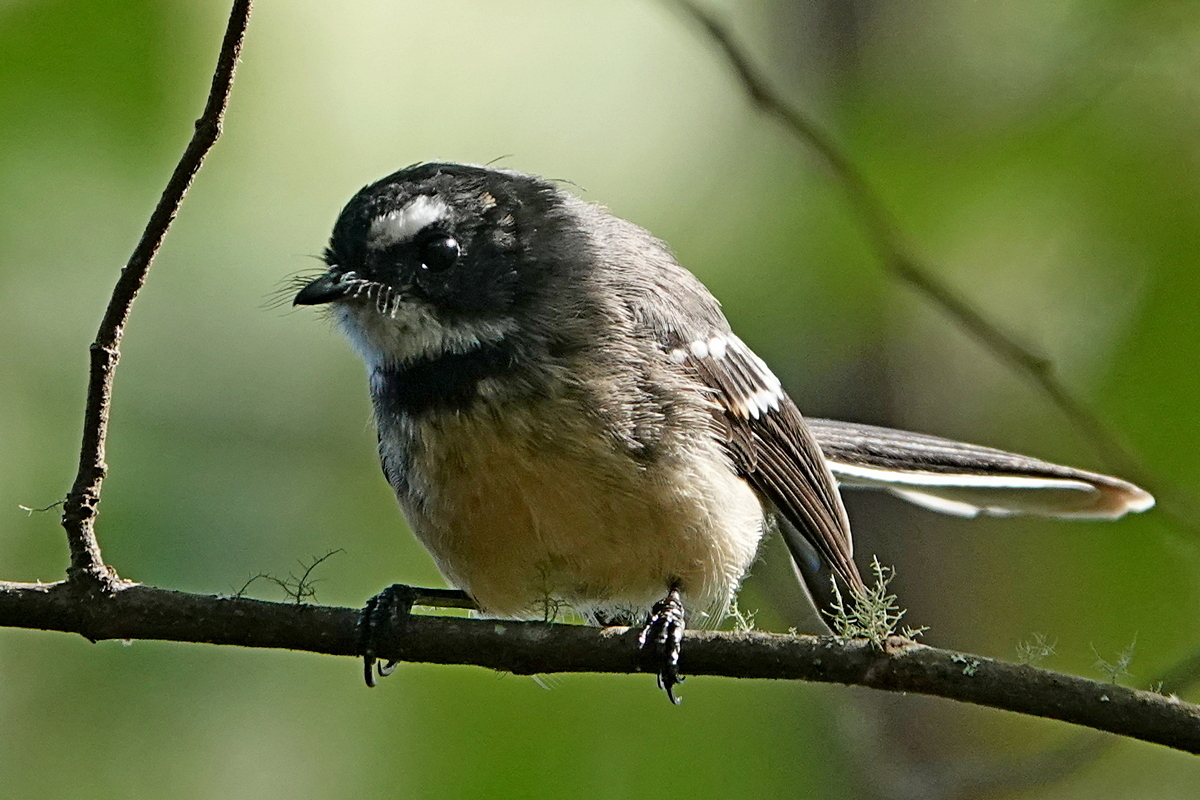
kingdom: Animalia
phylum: Chordata
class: Aves
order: Passeriformes
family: Rhipiduridae
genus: Rhipidura
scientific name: Rhipidura albiscapa
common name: Grey fantail
